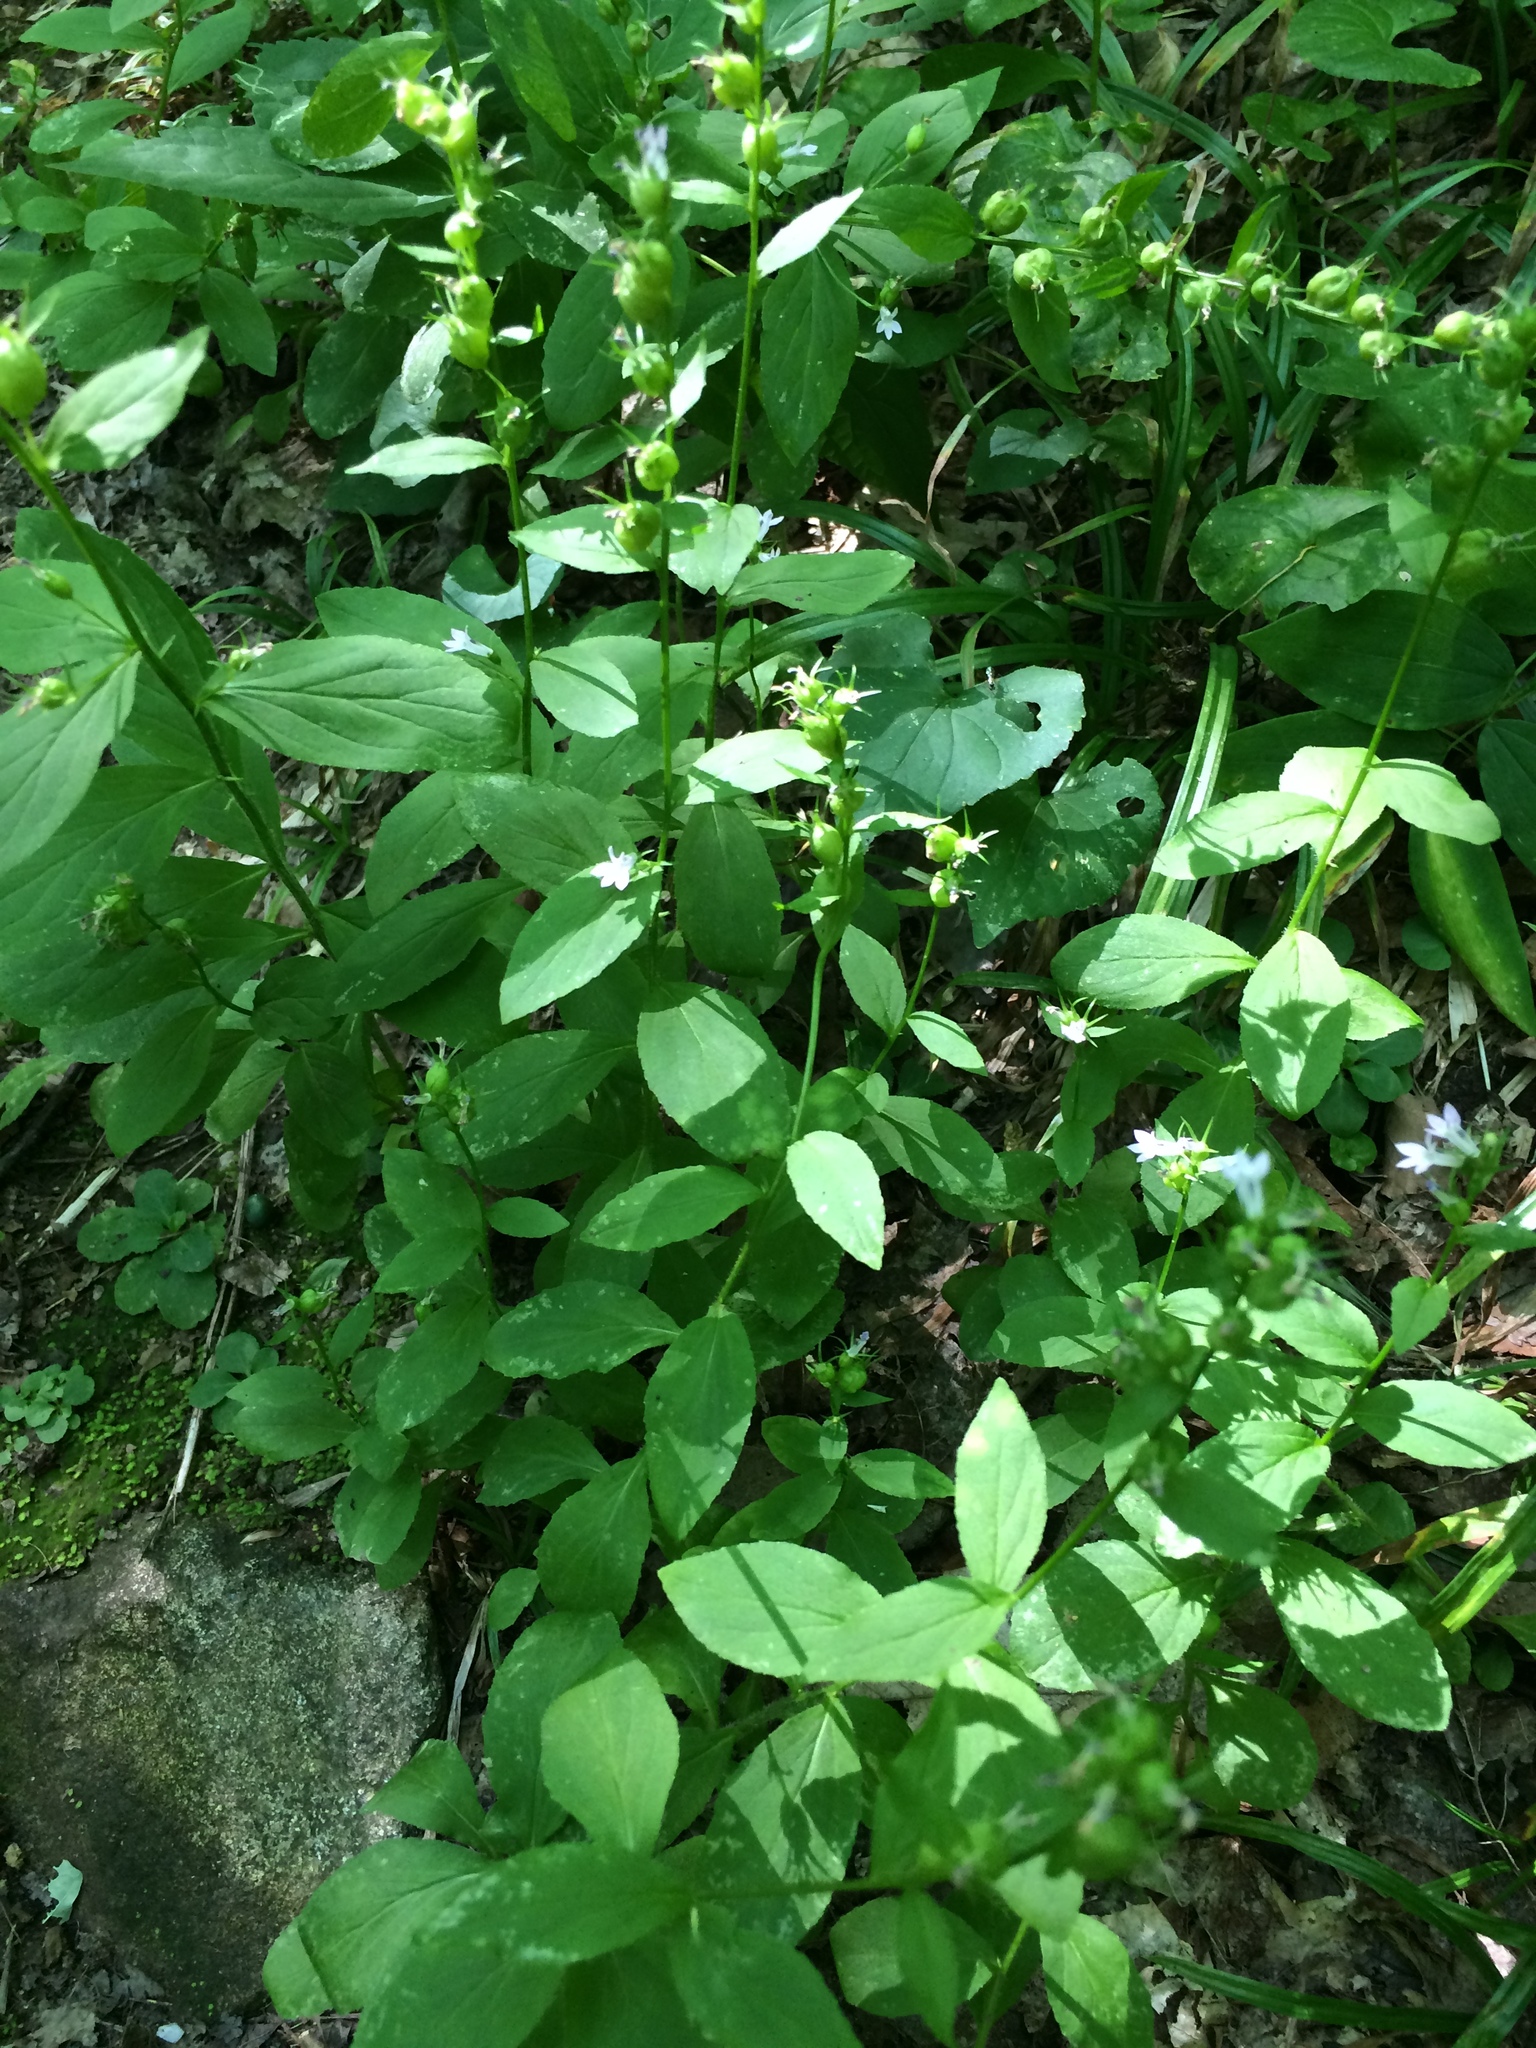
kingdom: Plantae
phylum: Tracheophyta
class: Magnoliopsida
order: Asterales
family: Campanulaceae
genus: Lobelia
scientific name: Lobelia inflata
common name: Indian tobacco
